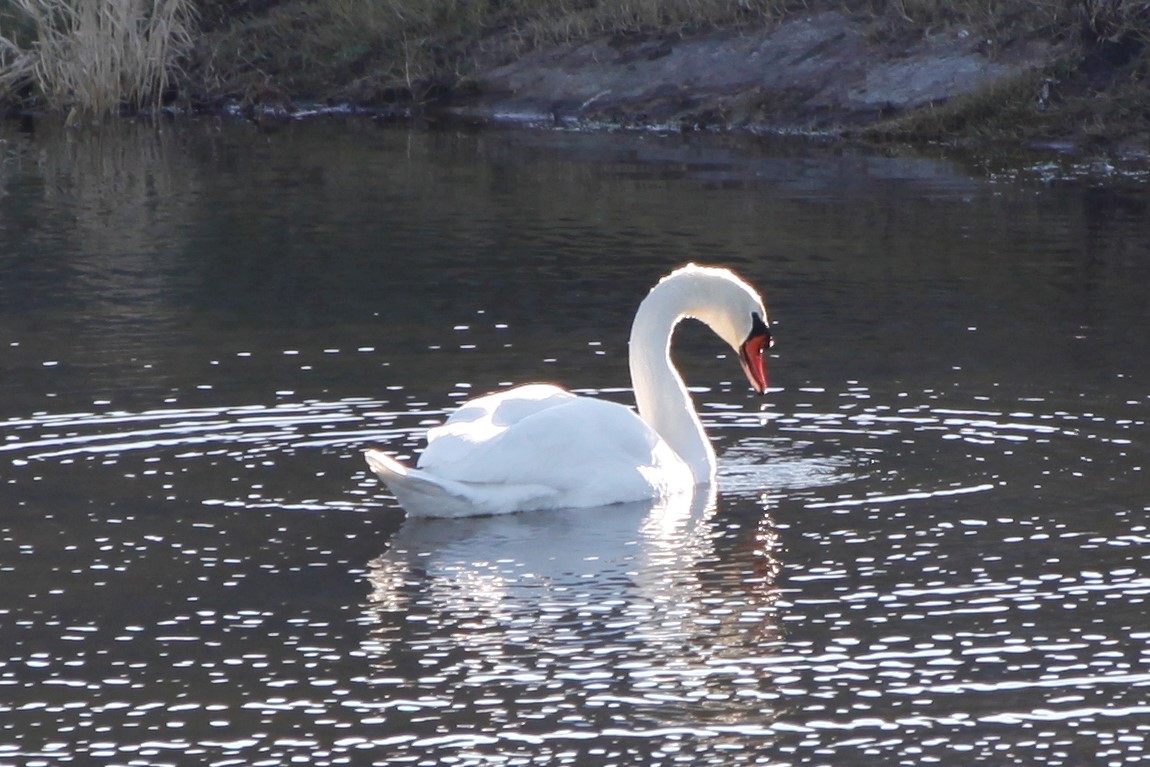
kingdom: Animalia
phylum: Chordata
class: Aves
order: Anseriformes
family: Anatidae
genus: Cygnus
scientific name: Cygnus olor
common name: Mute swan
